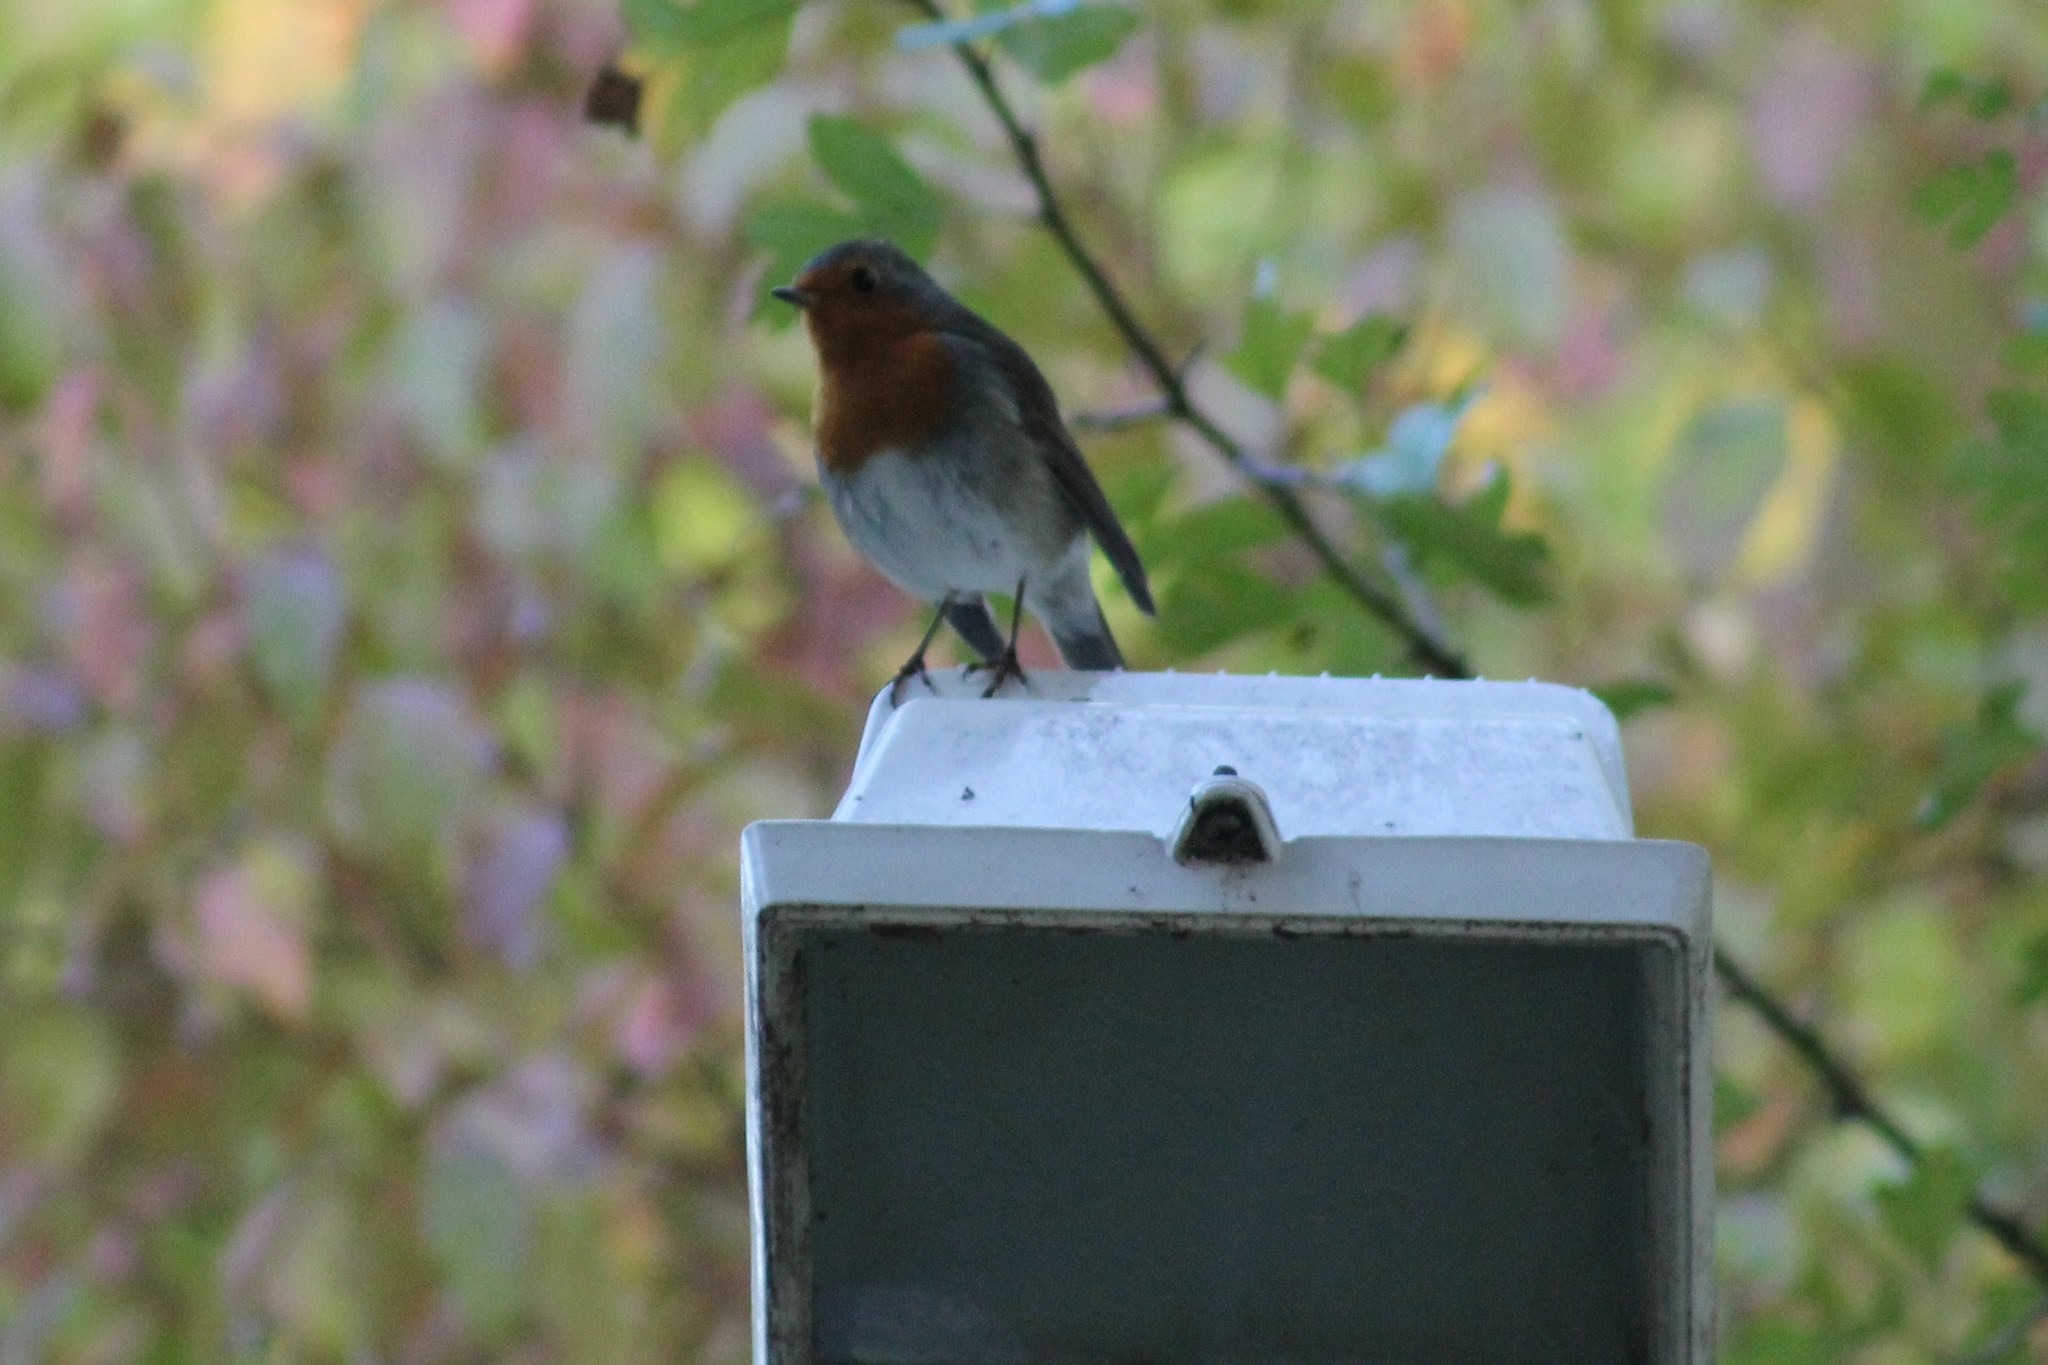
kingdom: Animalia
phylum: Chordata
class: Aves
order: Passeriformes
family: Muscicapidae
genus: Erithacus
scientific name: Erithacus rubecula
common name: European robin
